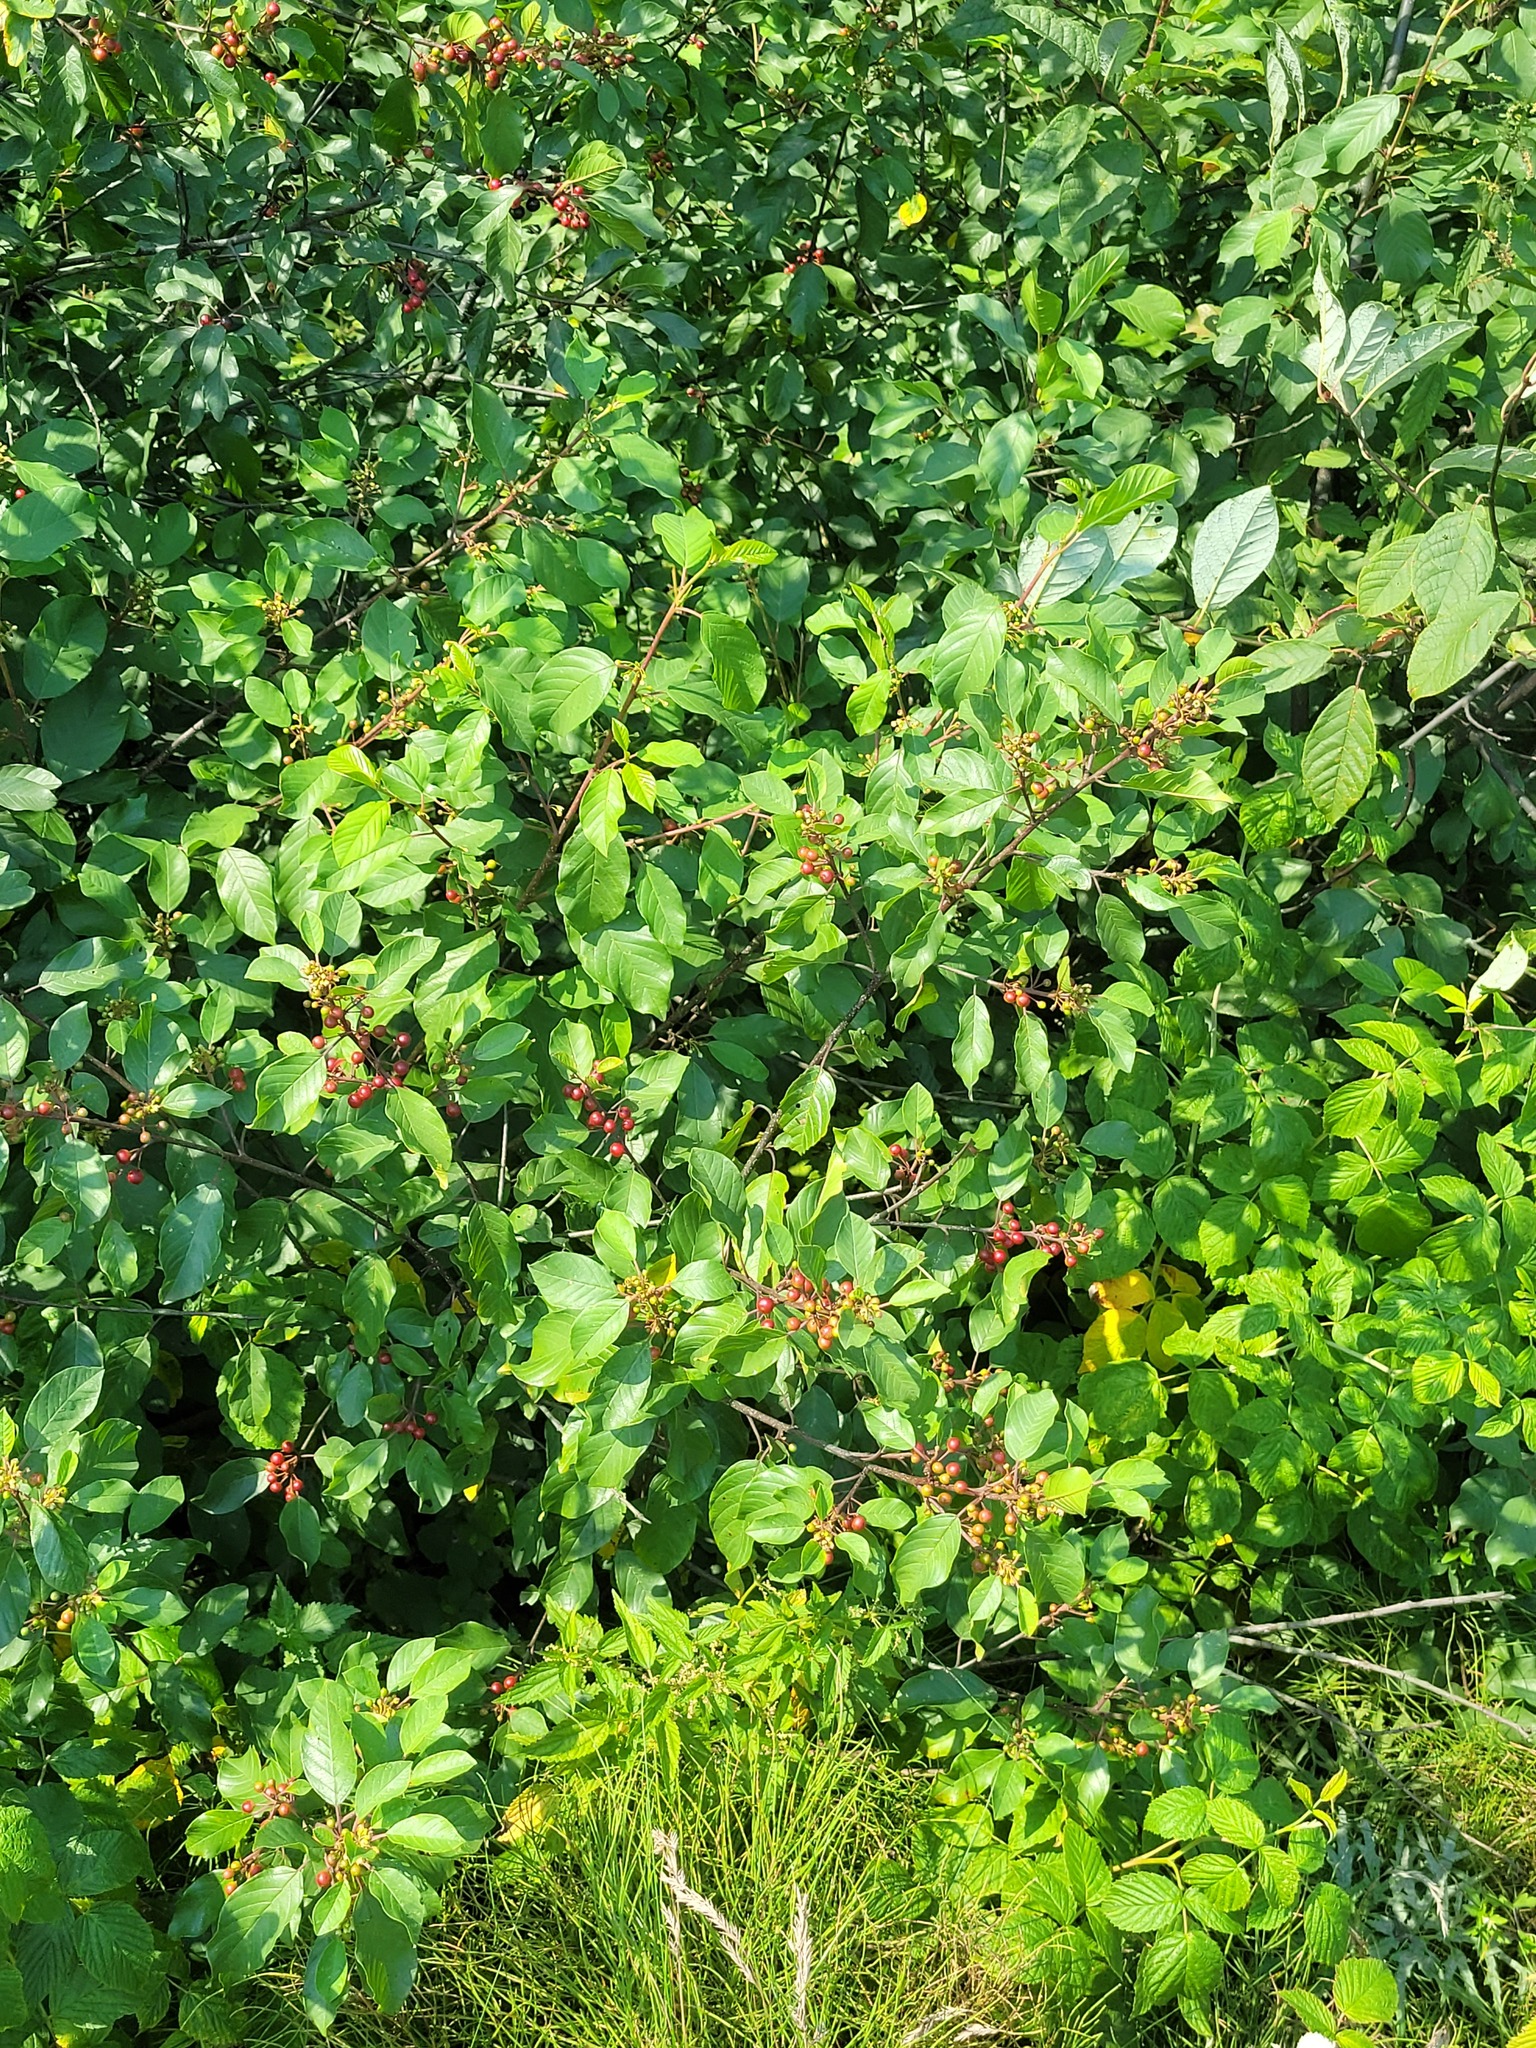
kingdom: Plantae
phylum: Tracheophyta
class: Magnoliopsida
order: Rosales
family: Rhamnaceae
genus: Frangula
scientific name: Frangula alnus
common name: Alder buckthorn
